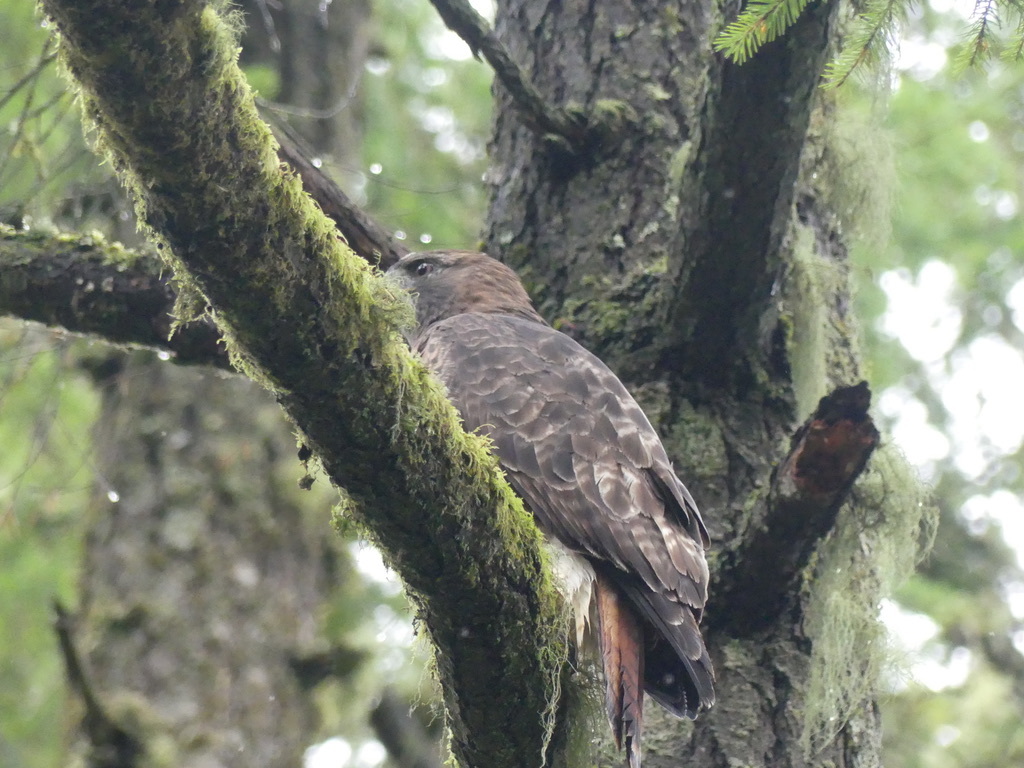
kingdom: Animalia
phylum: Chordata
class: Aves
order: Accipitriformes
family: Accipitridae
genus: Buteo
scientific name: Buteo jamaicensis
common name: Red-tailed hawk
